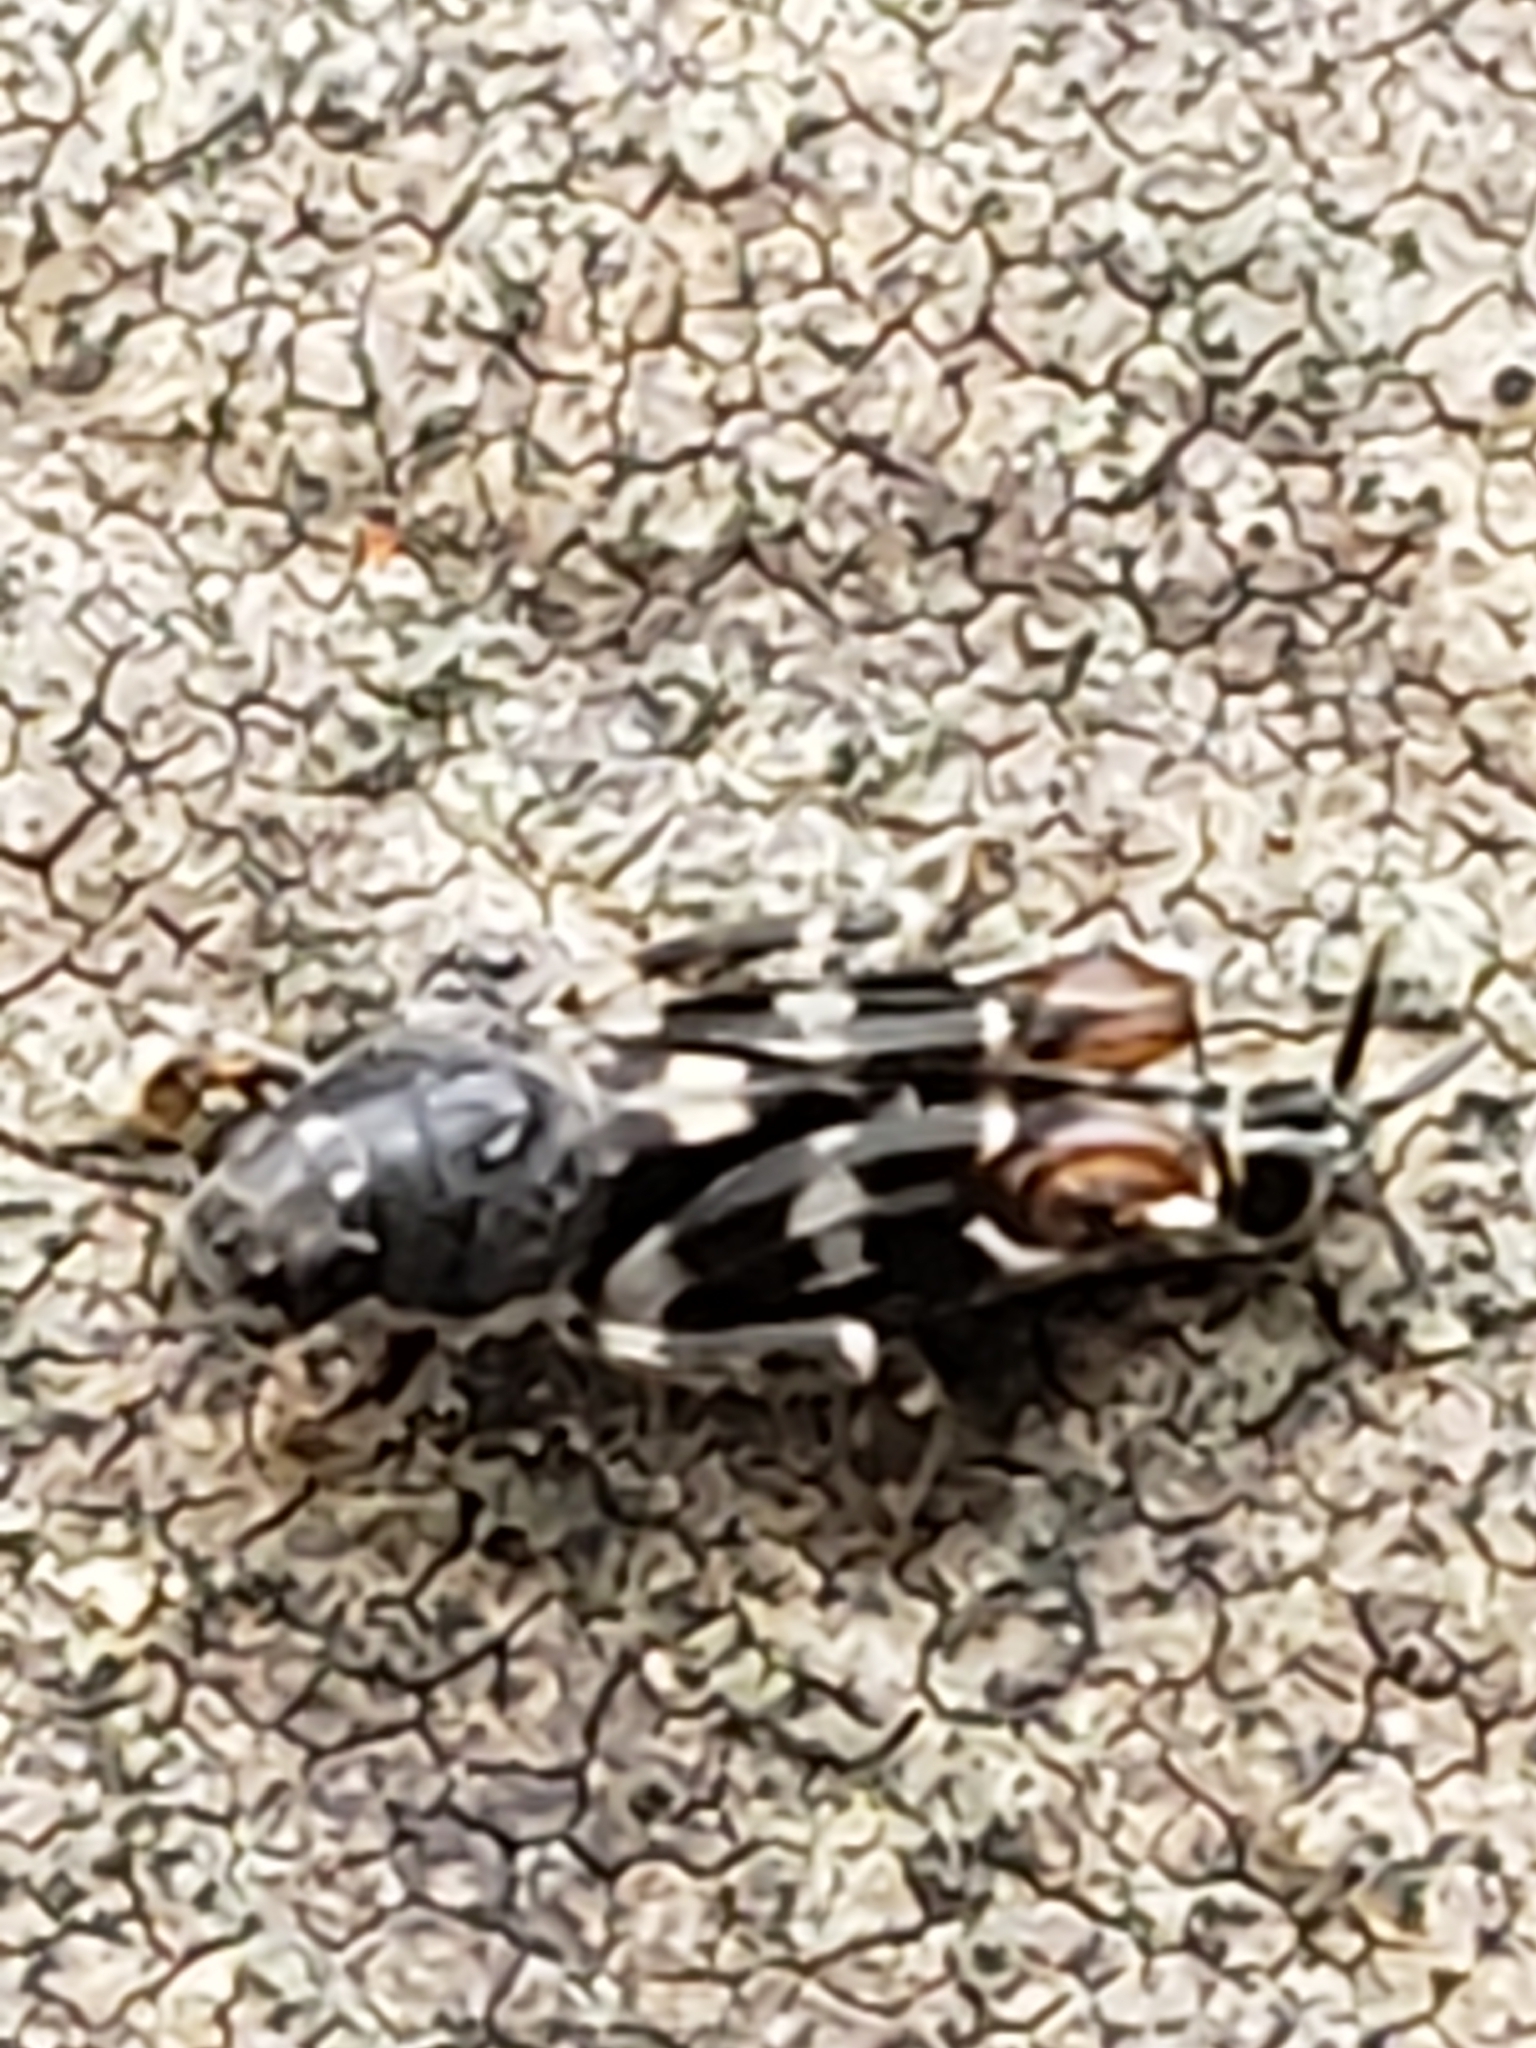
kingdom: Animalia
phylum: Arthropoda
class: Insecta
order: Orthoptera
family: Tridactylidae
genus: Ellipes
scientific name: Ellipes minuta
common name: Minute pygmy locust
